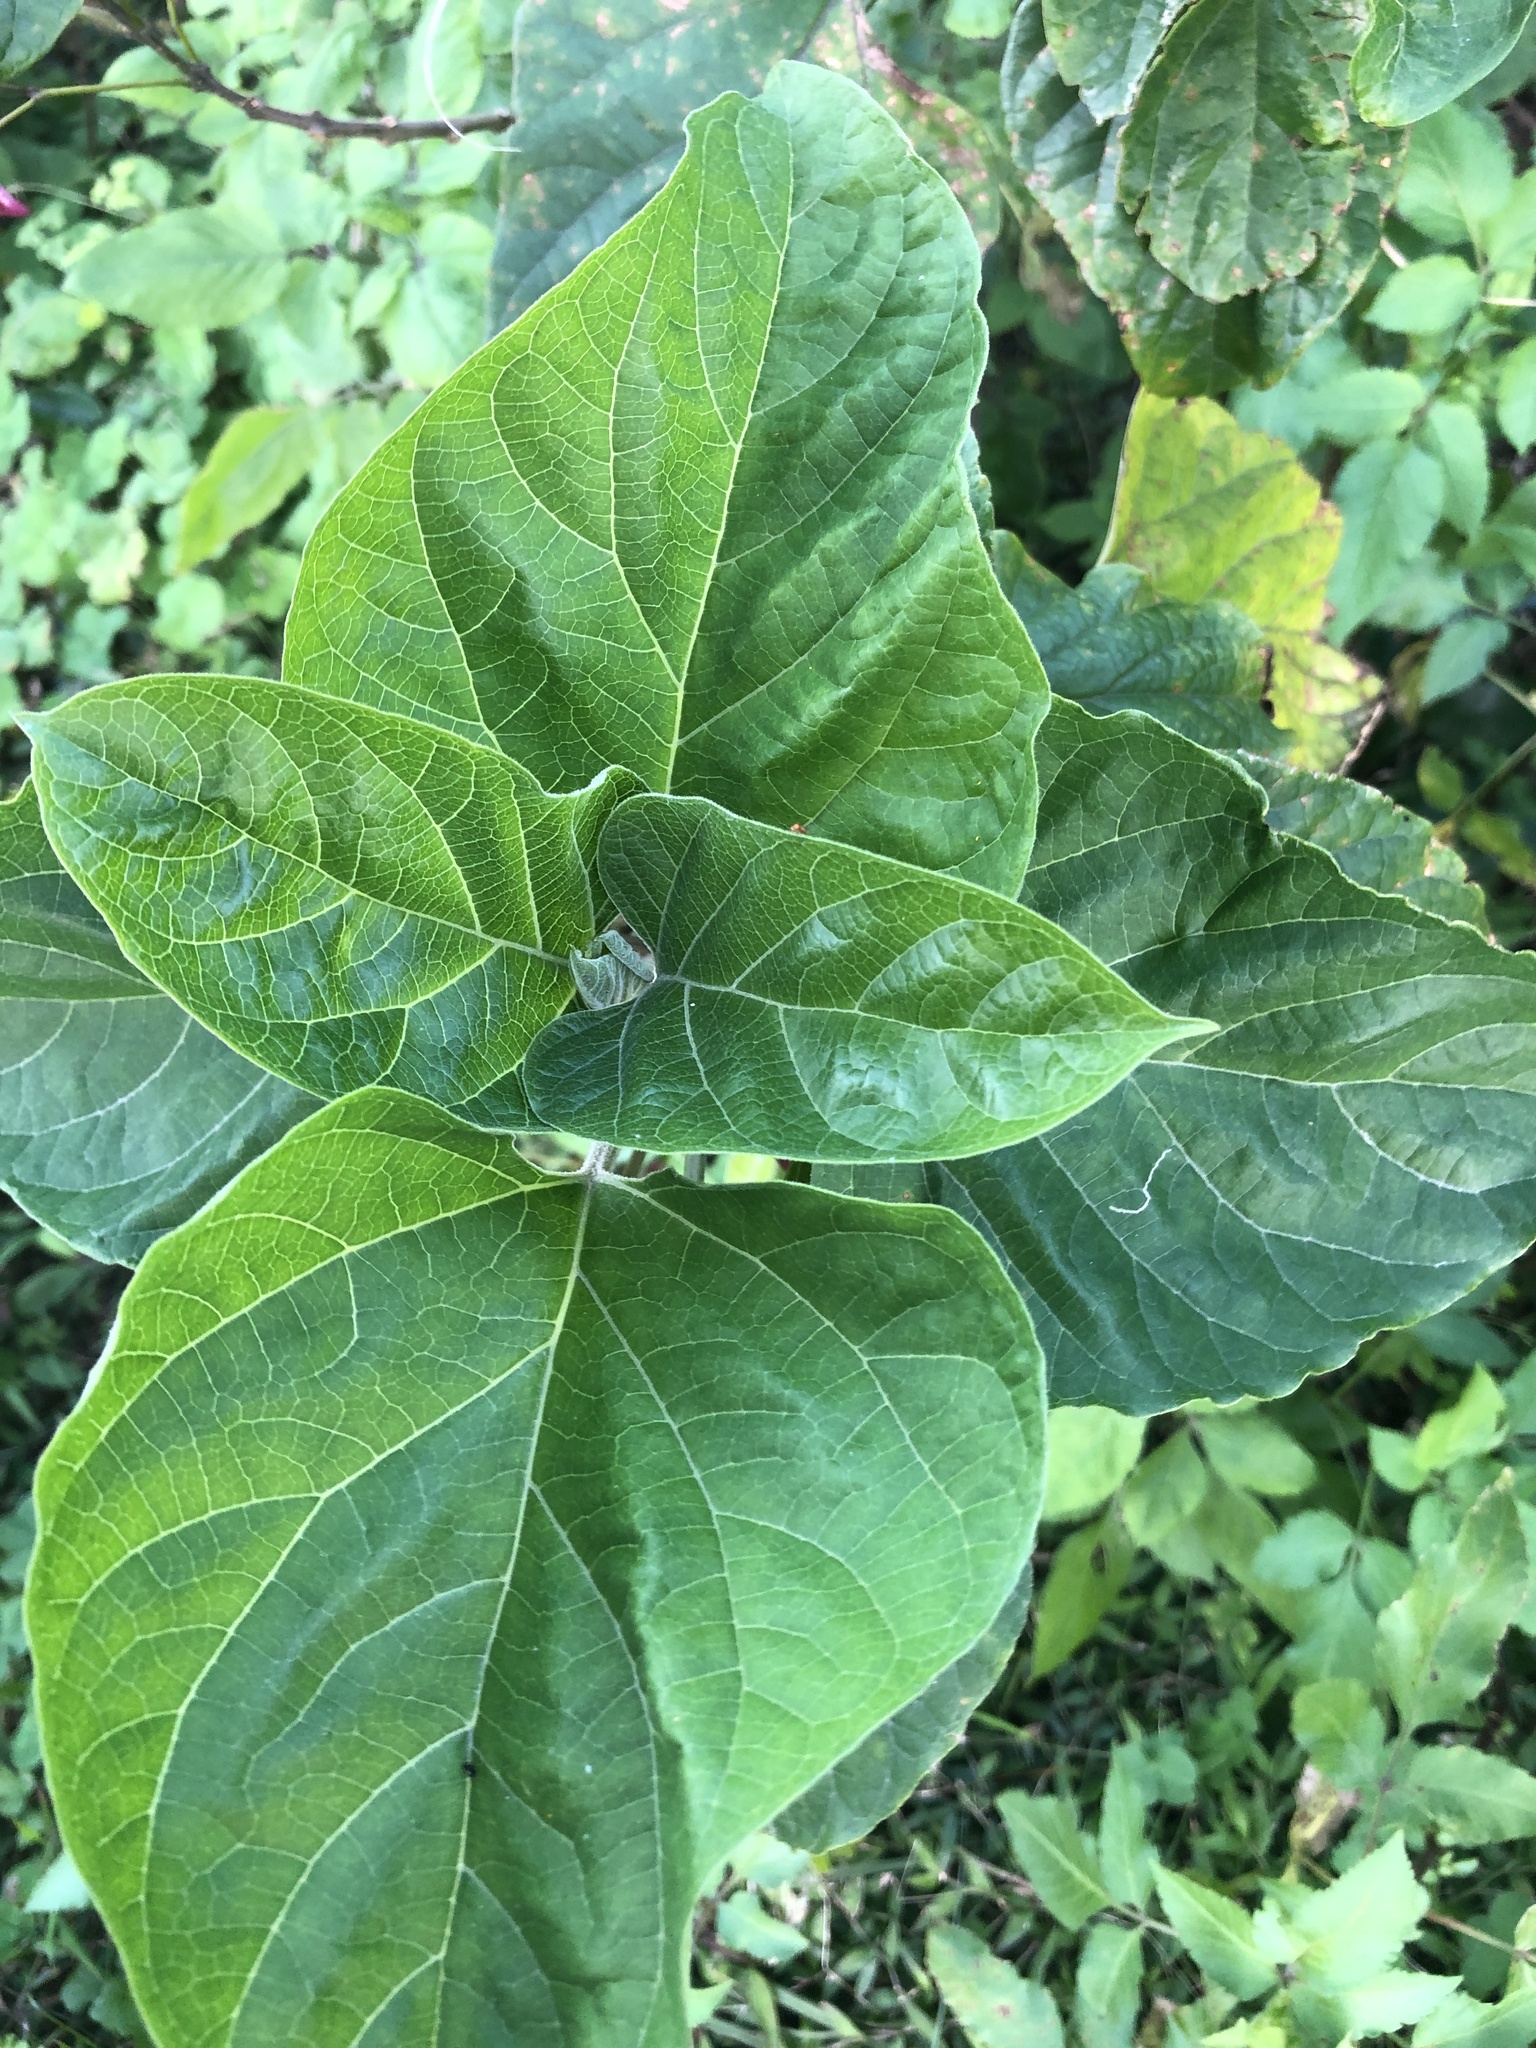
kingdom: Plantae
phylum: Tracheophyta
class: Magnoliopsida
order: Lamiales
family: Lamiaceae
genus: Clerodendrum
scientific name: Clerodendrum trichotomum
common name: Harlequin glorybower
